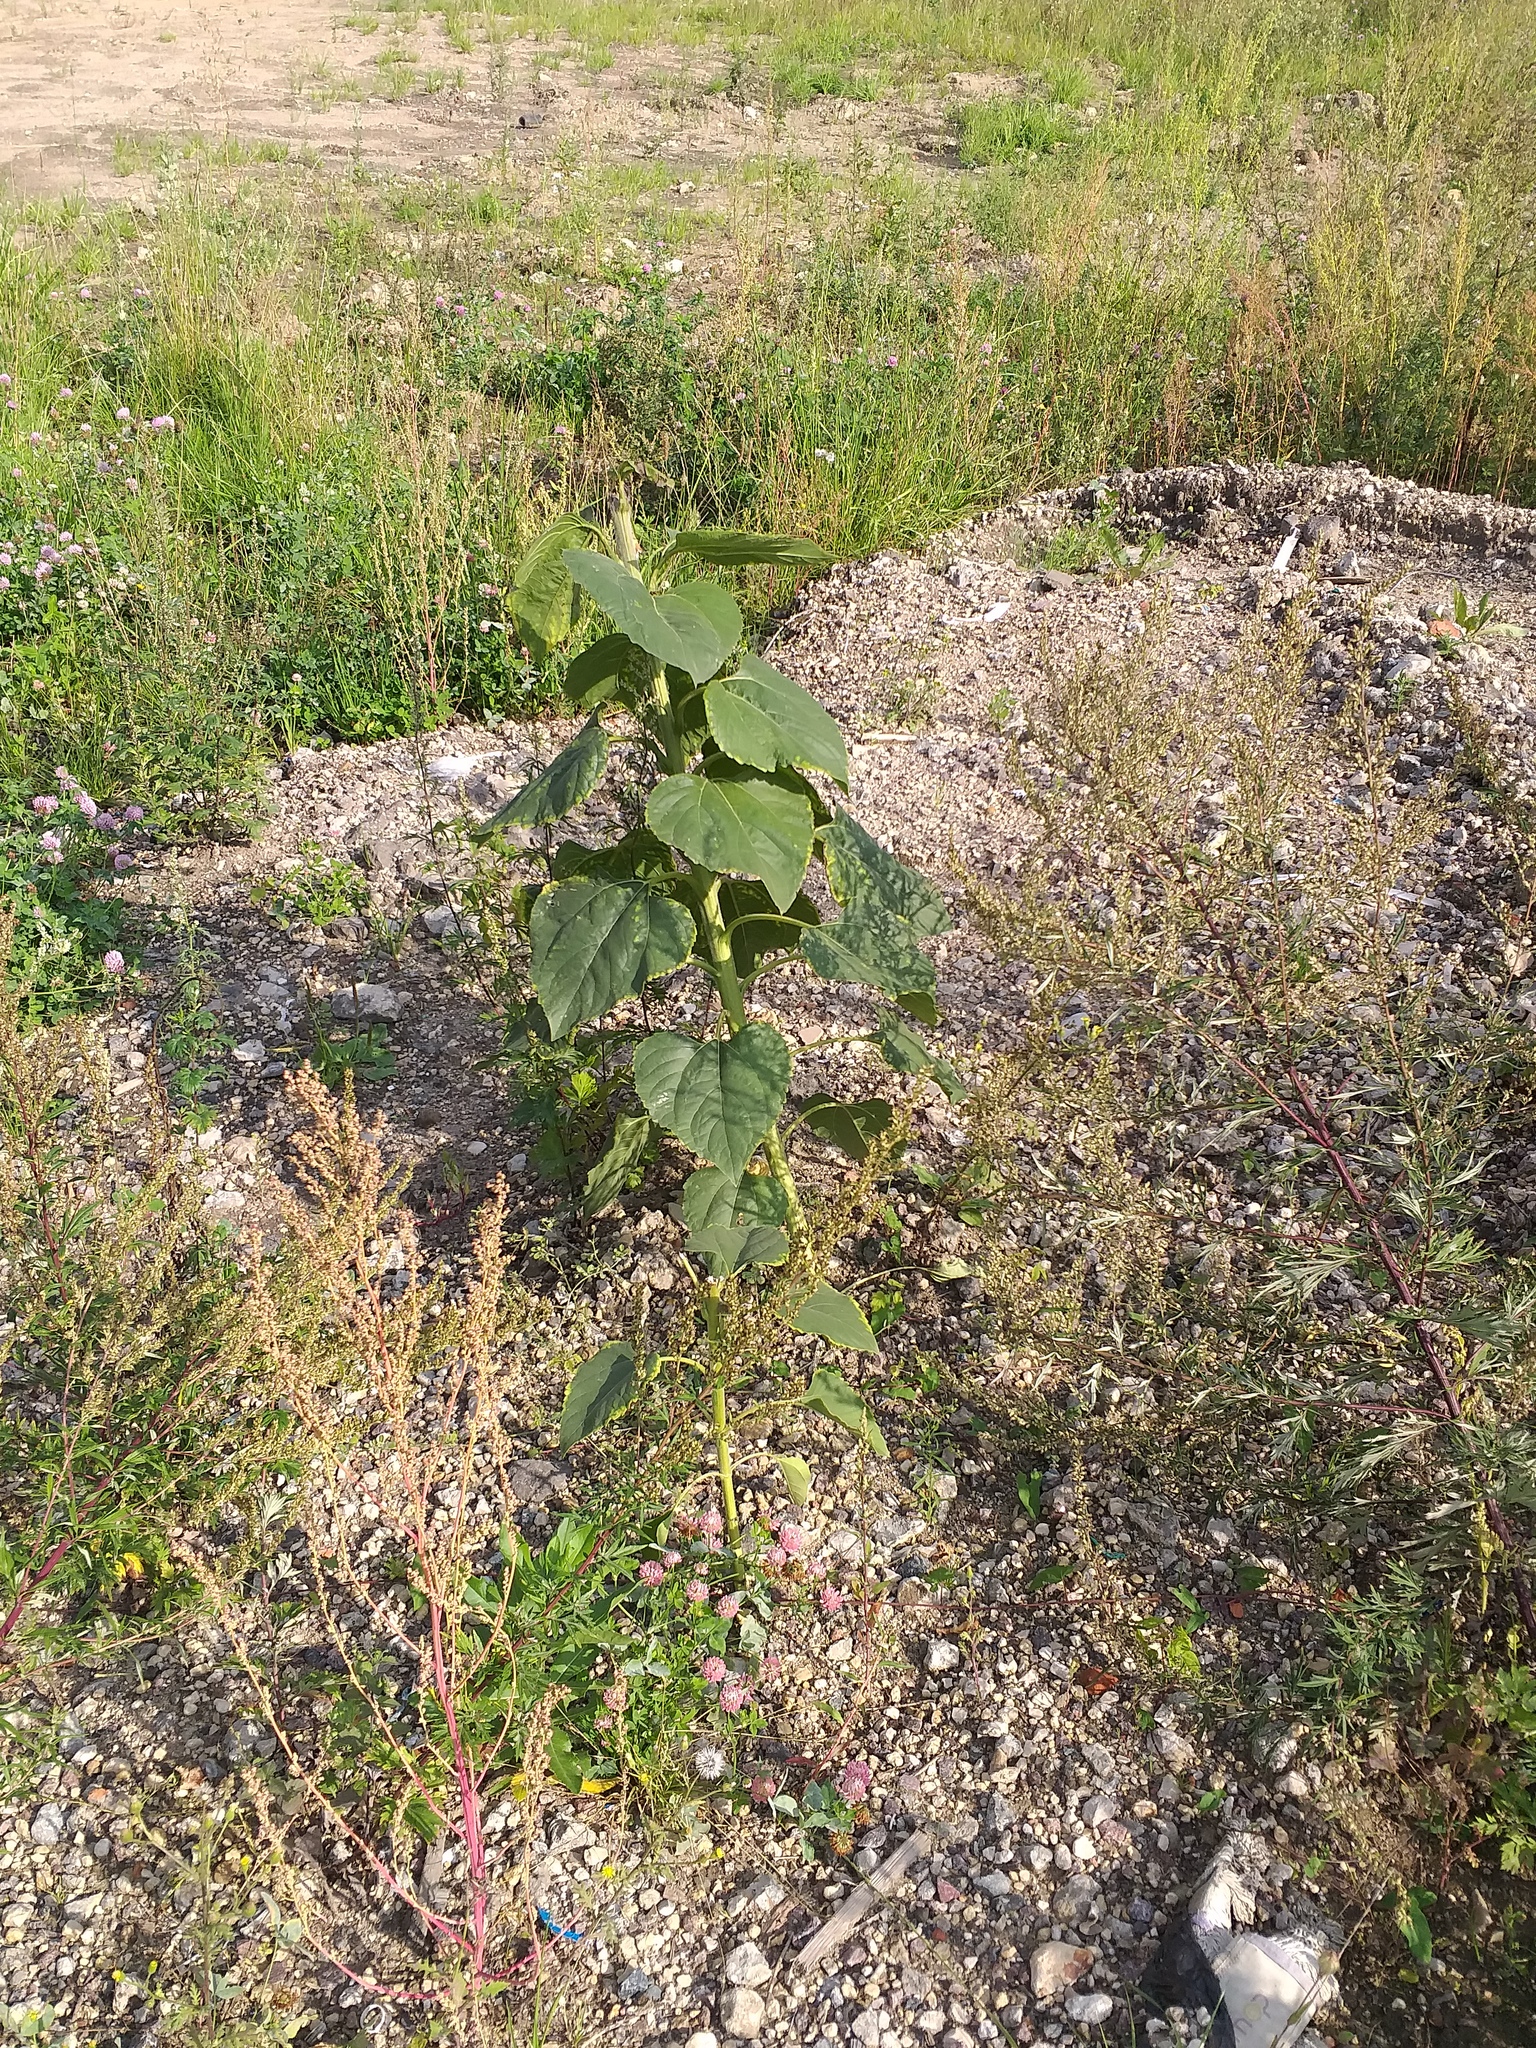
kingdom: Plantae
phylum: Tracheophyta
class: Magnoliopsida
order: Asterales
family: Asteraceae
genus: Helianthus
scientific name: Helianthus annuus
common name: Sunflower
